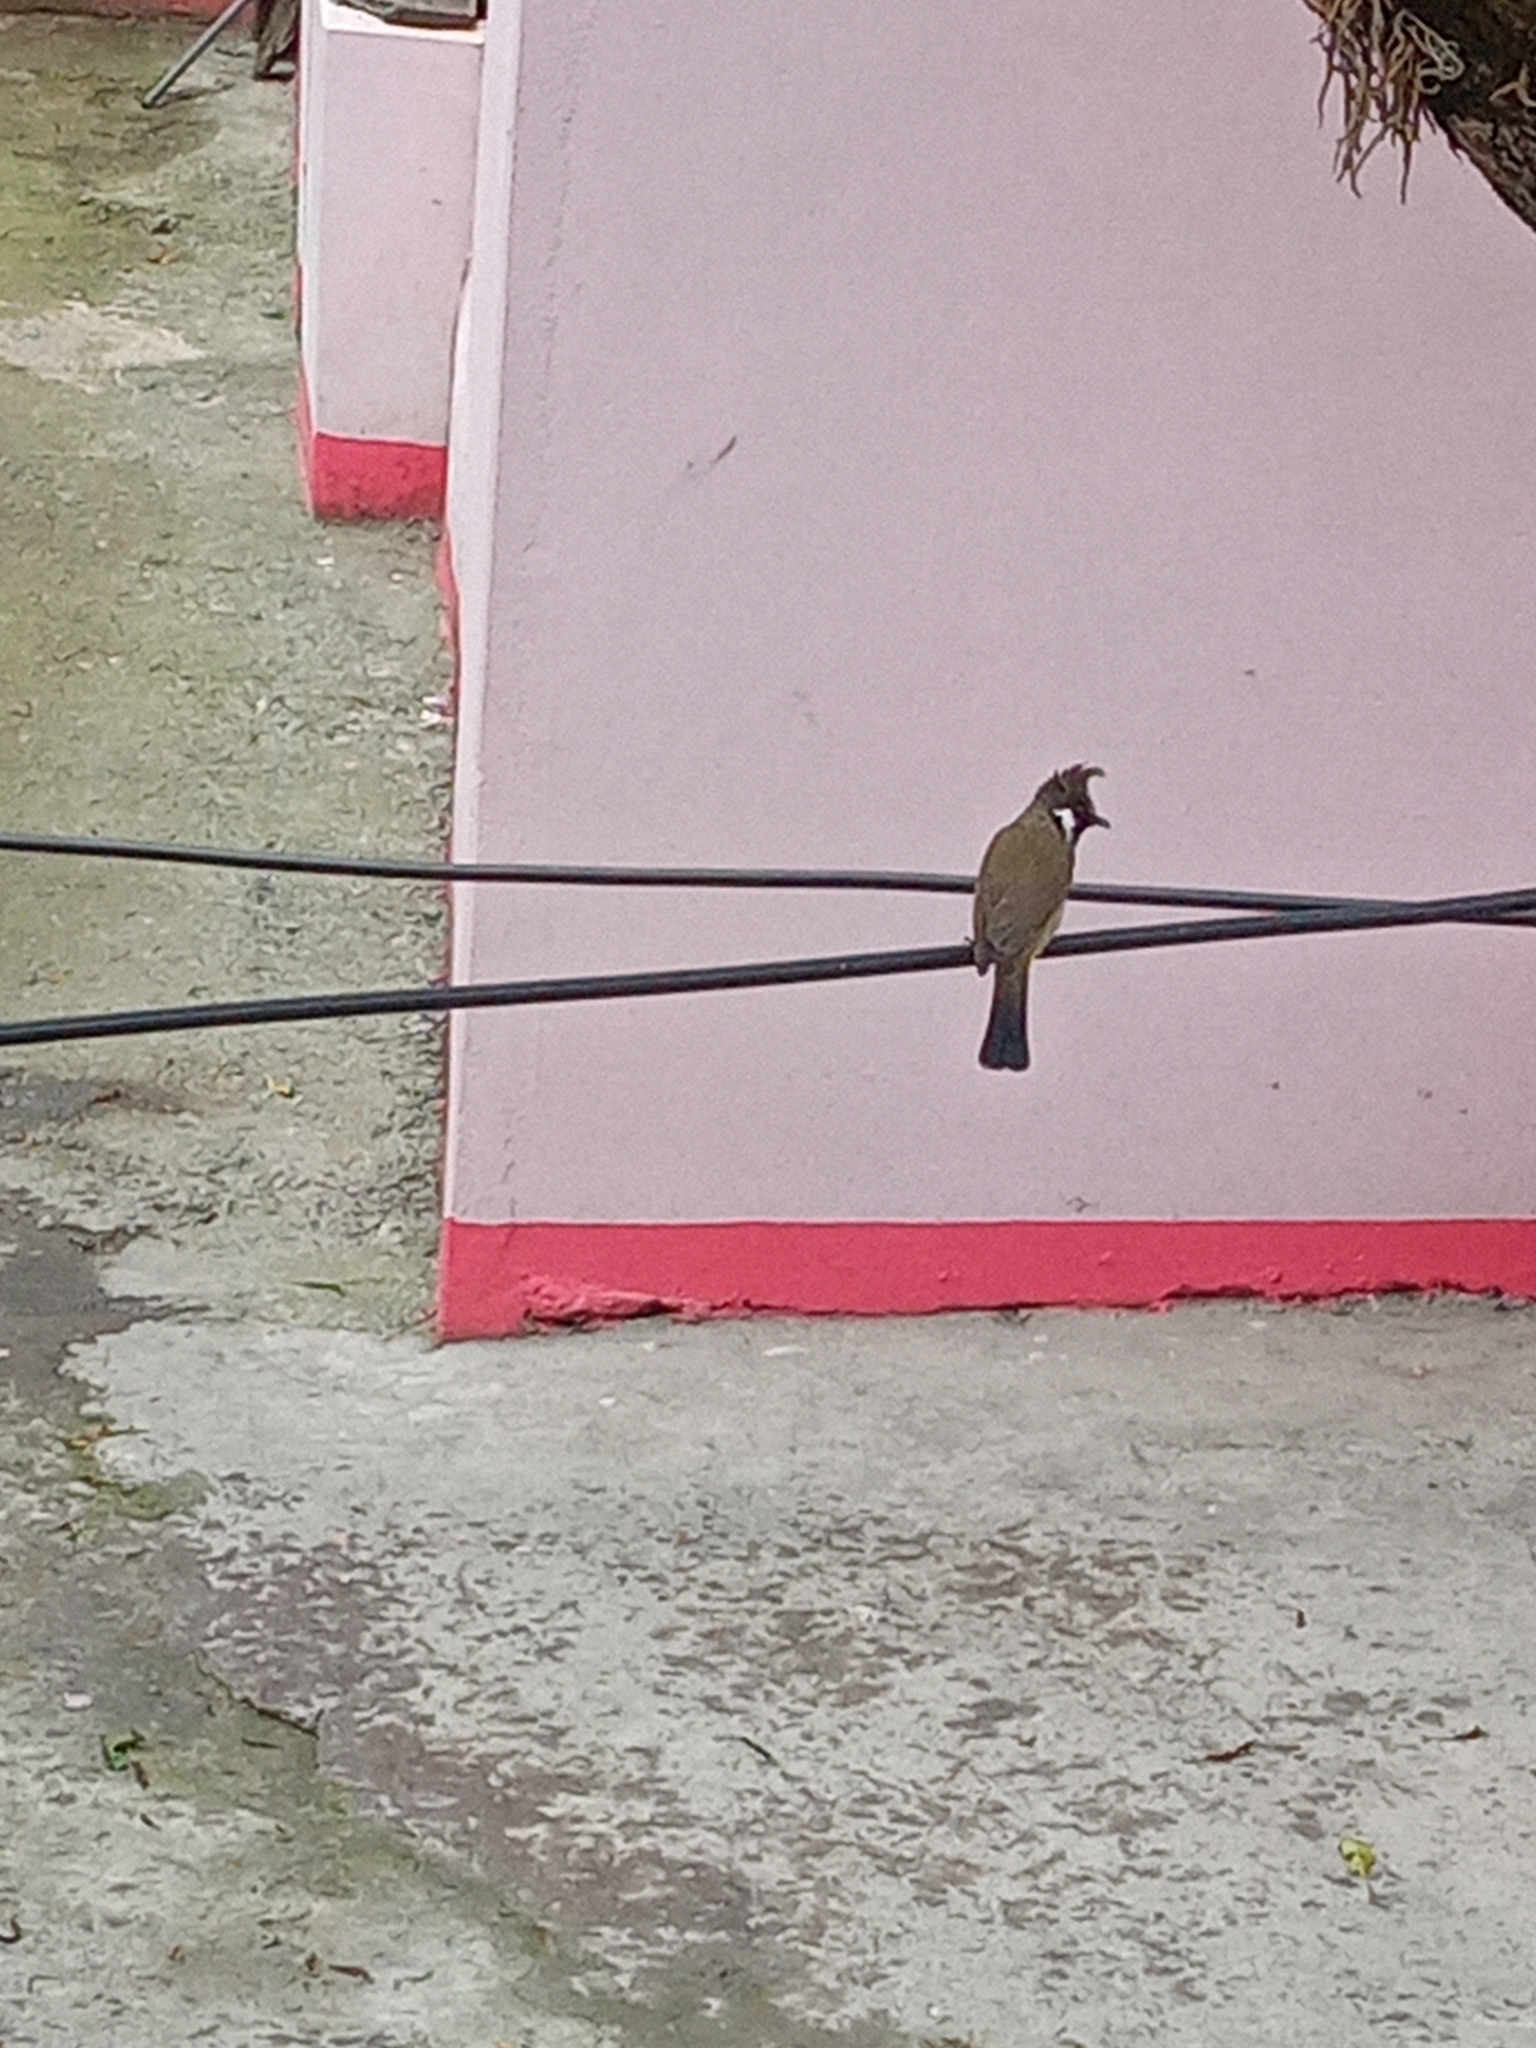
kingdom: Animalia
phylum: Chordata
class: Aves
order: Passeriformes
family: Pycnonotidae
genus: Pycnonotus
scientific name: Pycnonotus leucogenys
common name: Himalayan bulbul
